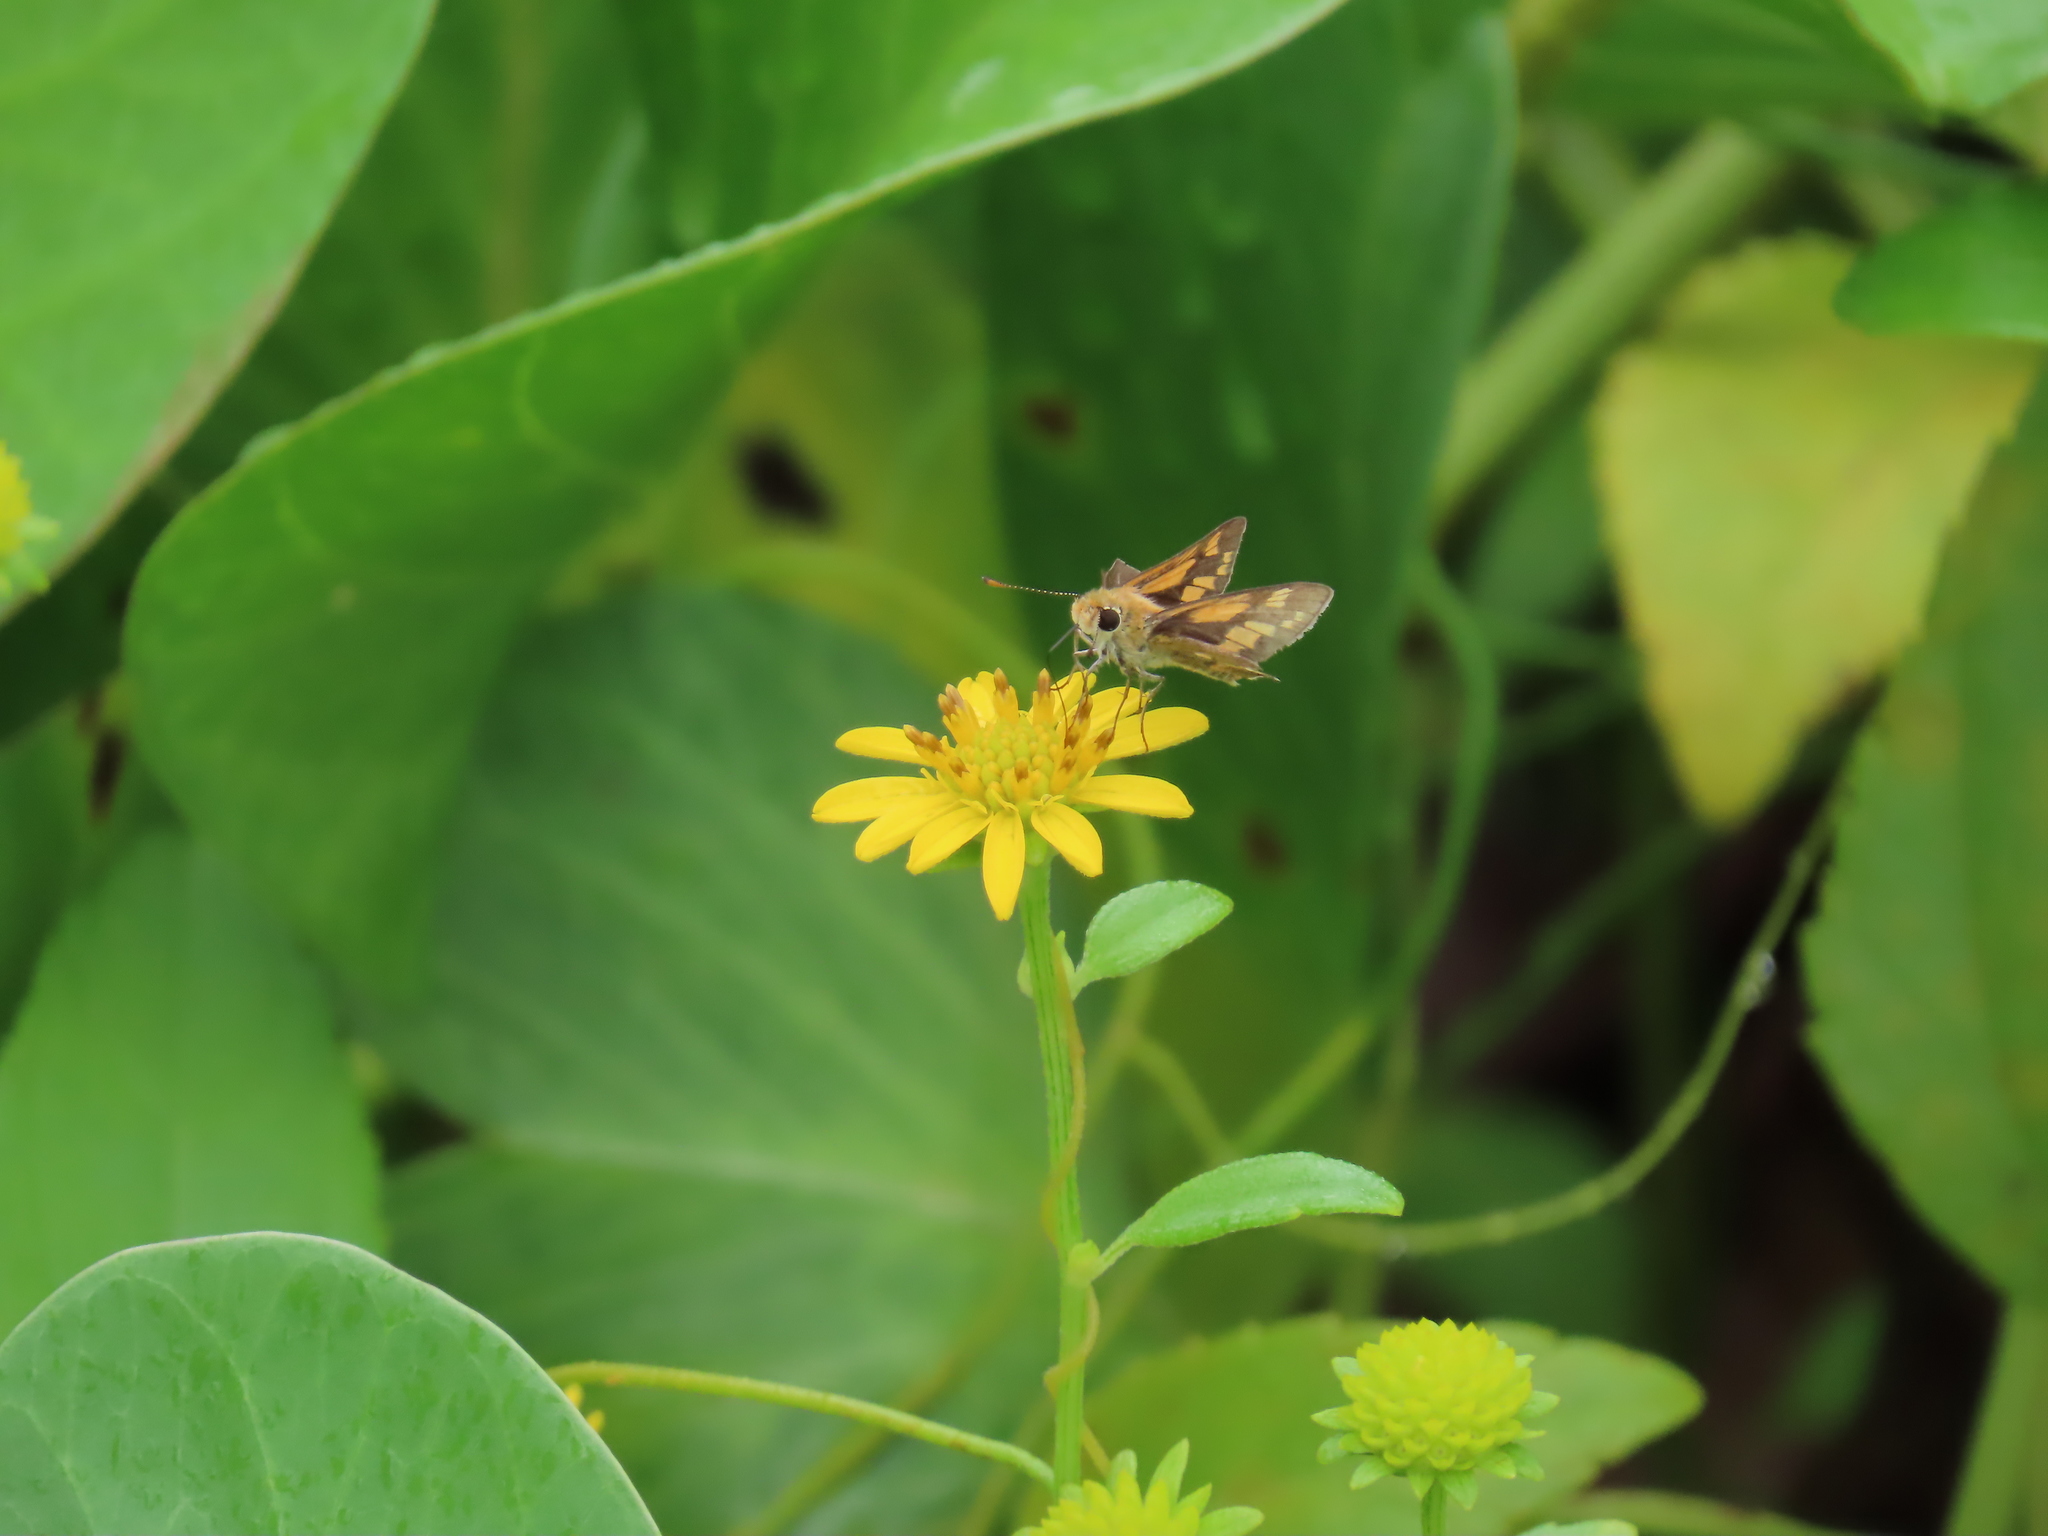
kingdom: Animalia
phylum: Arthropoda
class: Insecta
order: Lepidoptera
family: Hesperiidae
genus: Taractrocera
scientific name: Taractrocera ina
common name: Ina grass-dart
